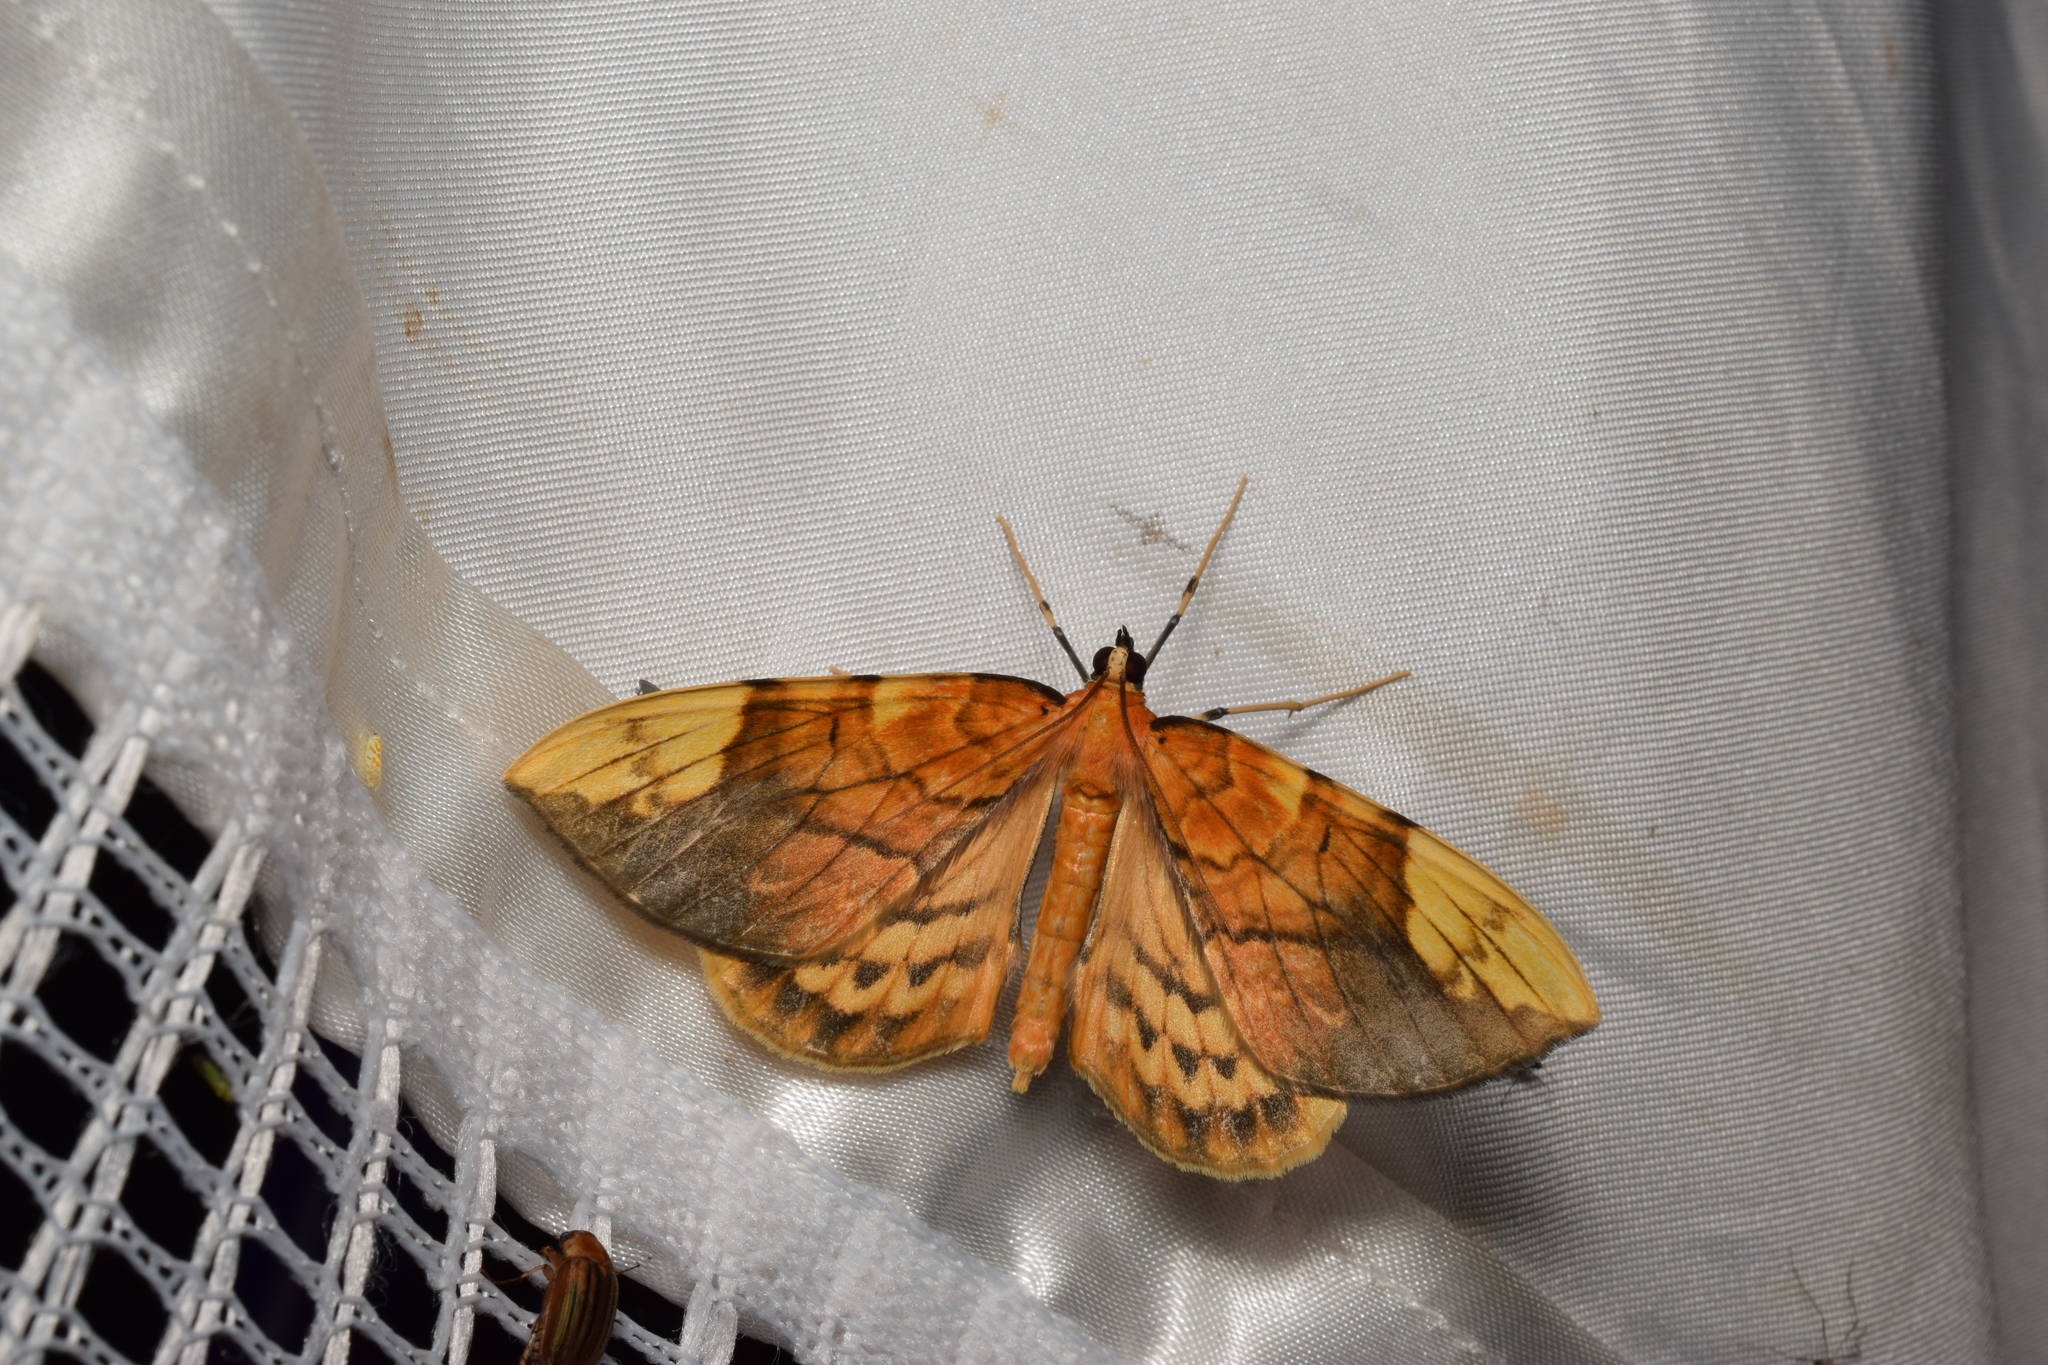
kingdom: Animalia
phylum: Arthropoda
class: Insecta
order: Lepidoptera
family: Geometridae
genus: Gandaritis
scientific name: Gandaritis fixseni
